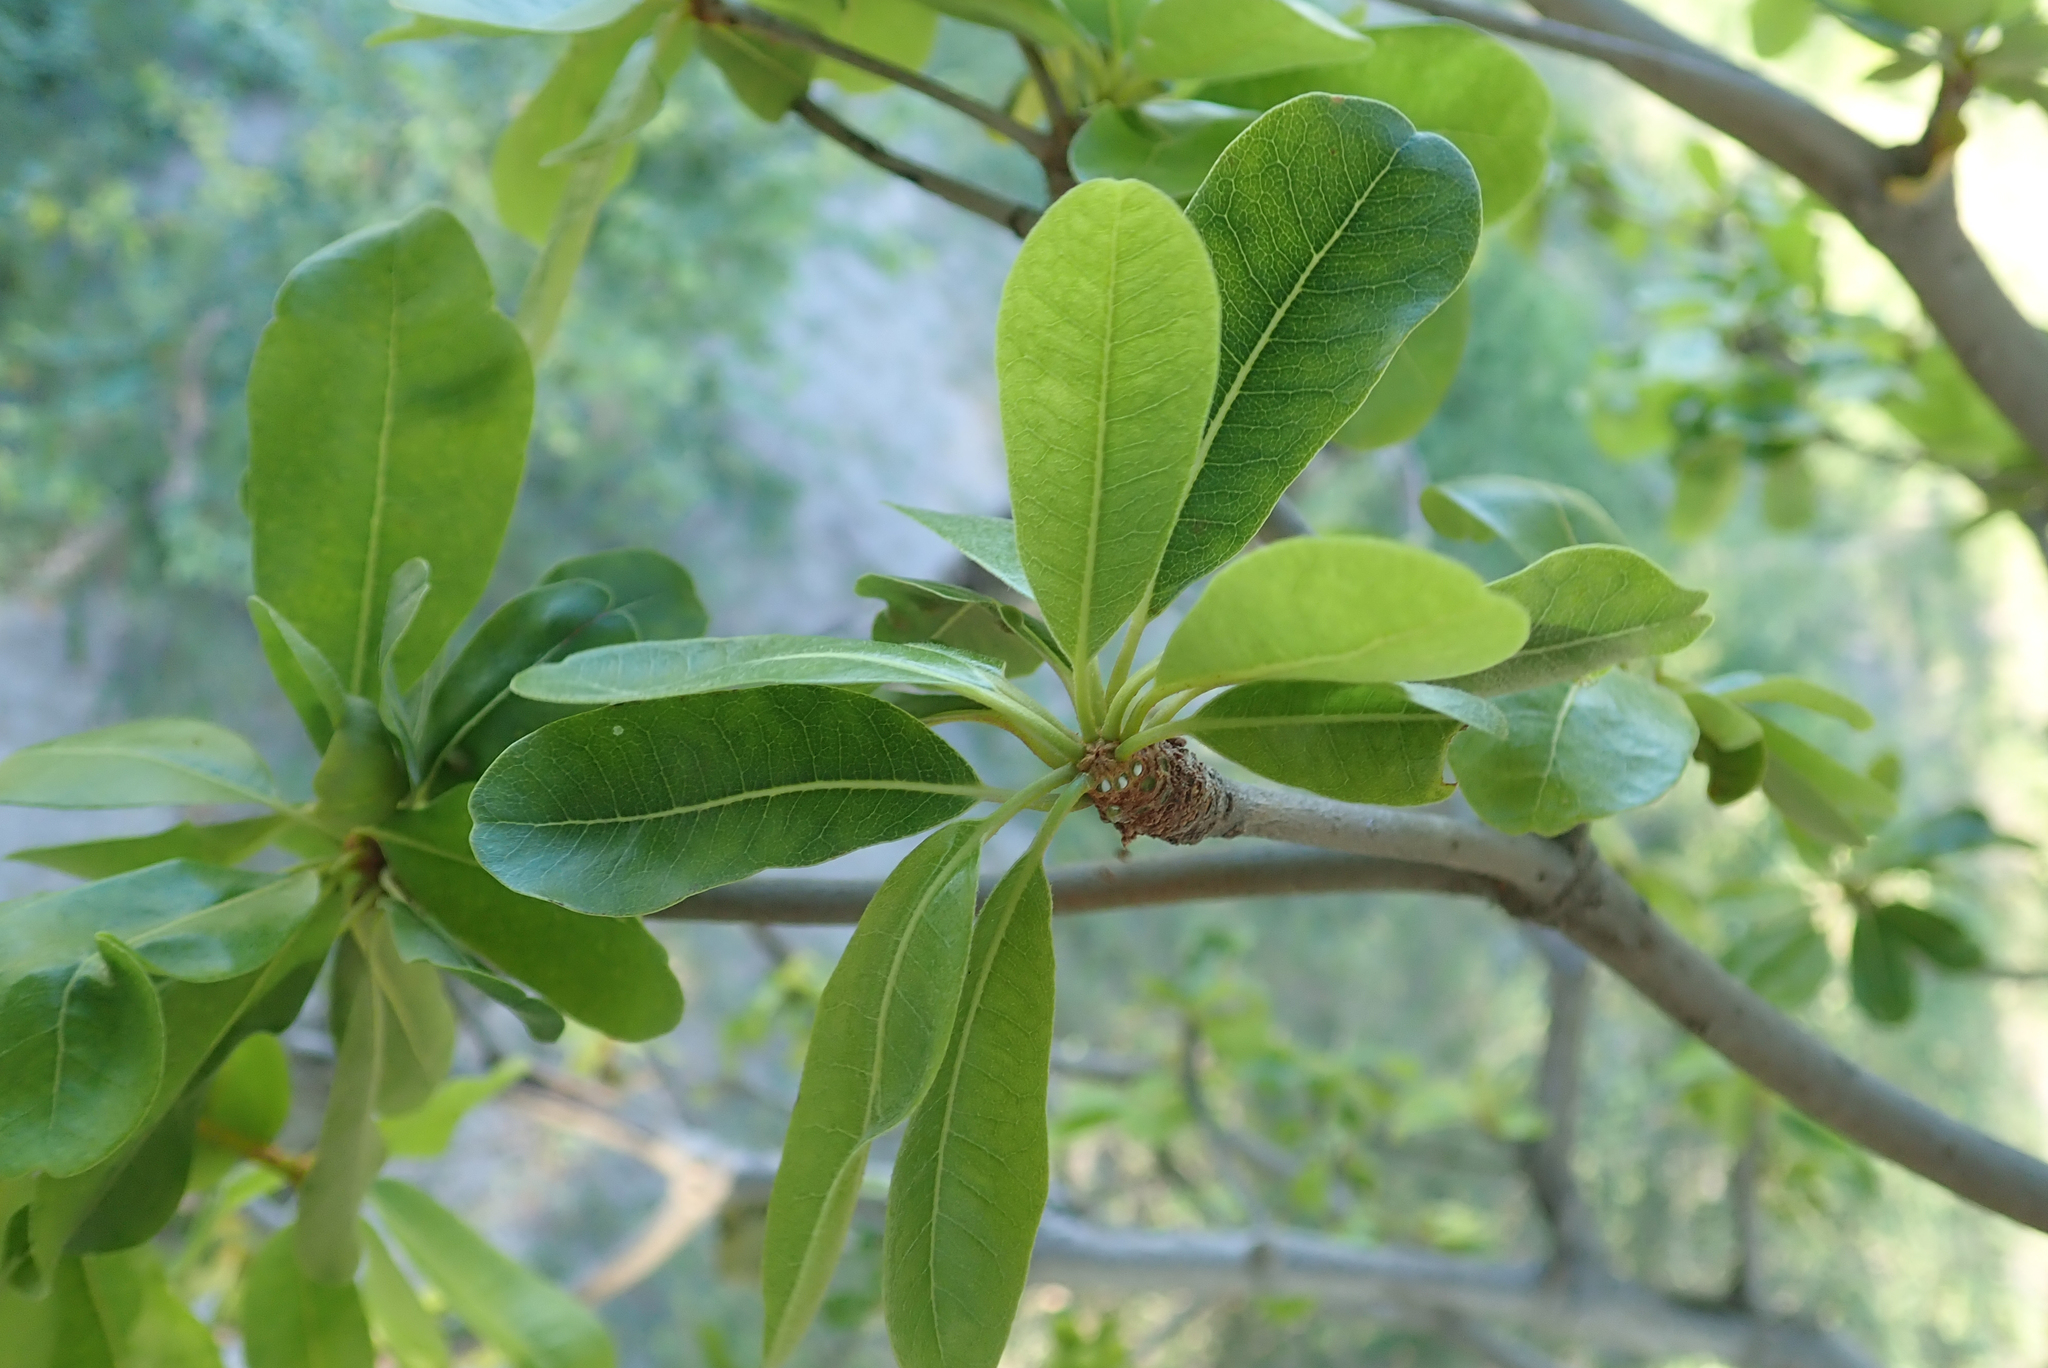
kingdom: Plantae
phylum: Tracheophyta
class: Magnoliopsida
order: Ericales
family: Sapotaceae
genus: Manilkara
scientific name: Manilkara mochisia
